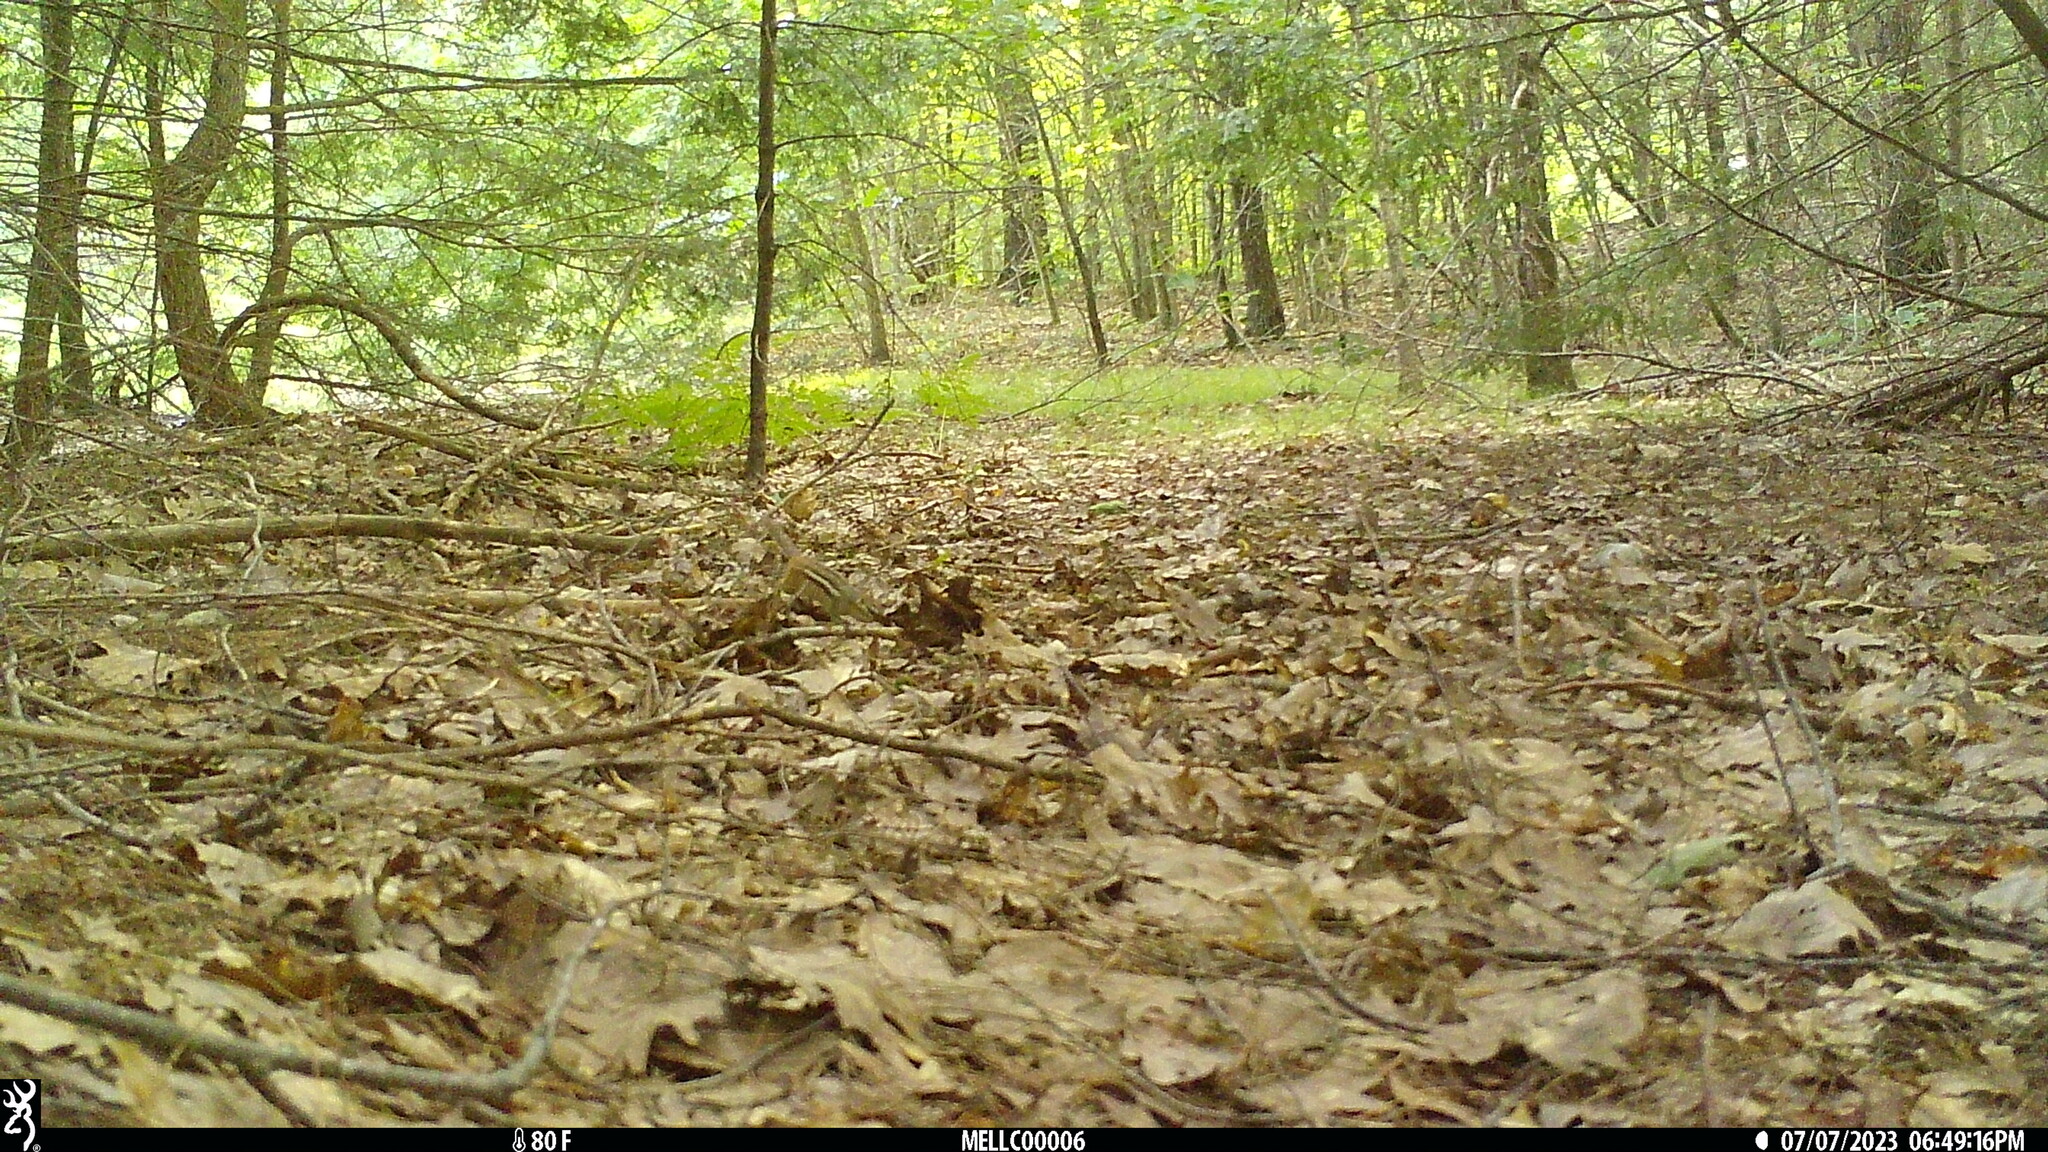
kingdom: Animalia
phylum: Chordata
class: Mammalia
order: Rodentia
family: Sciuridae
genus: Tamias
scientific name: Tamias striatus
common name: Eastern chipmunk
